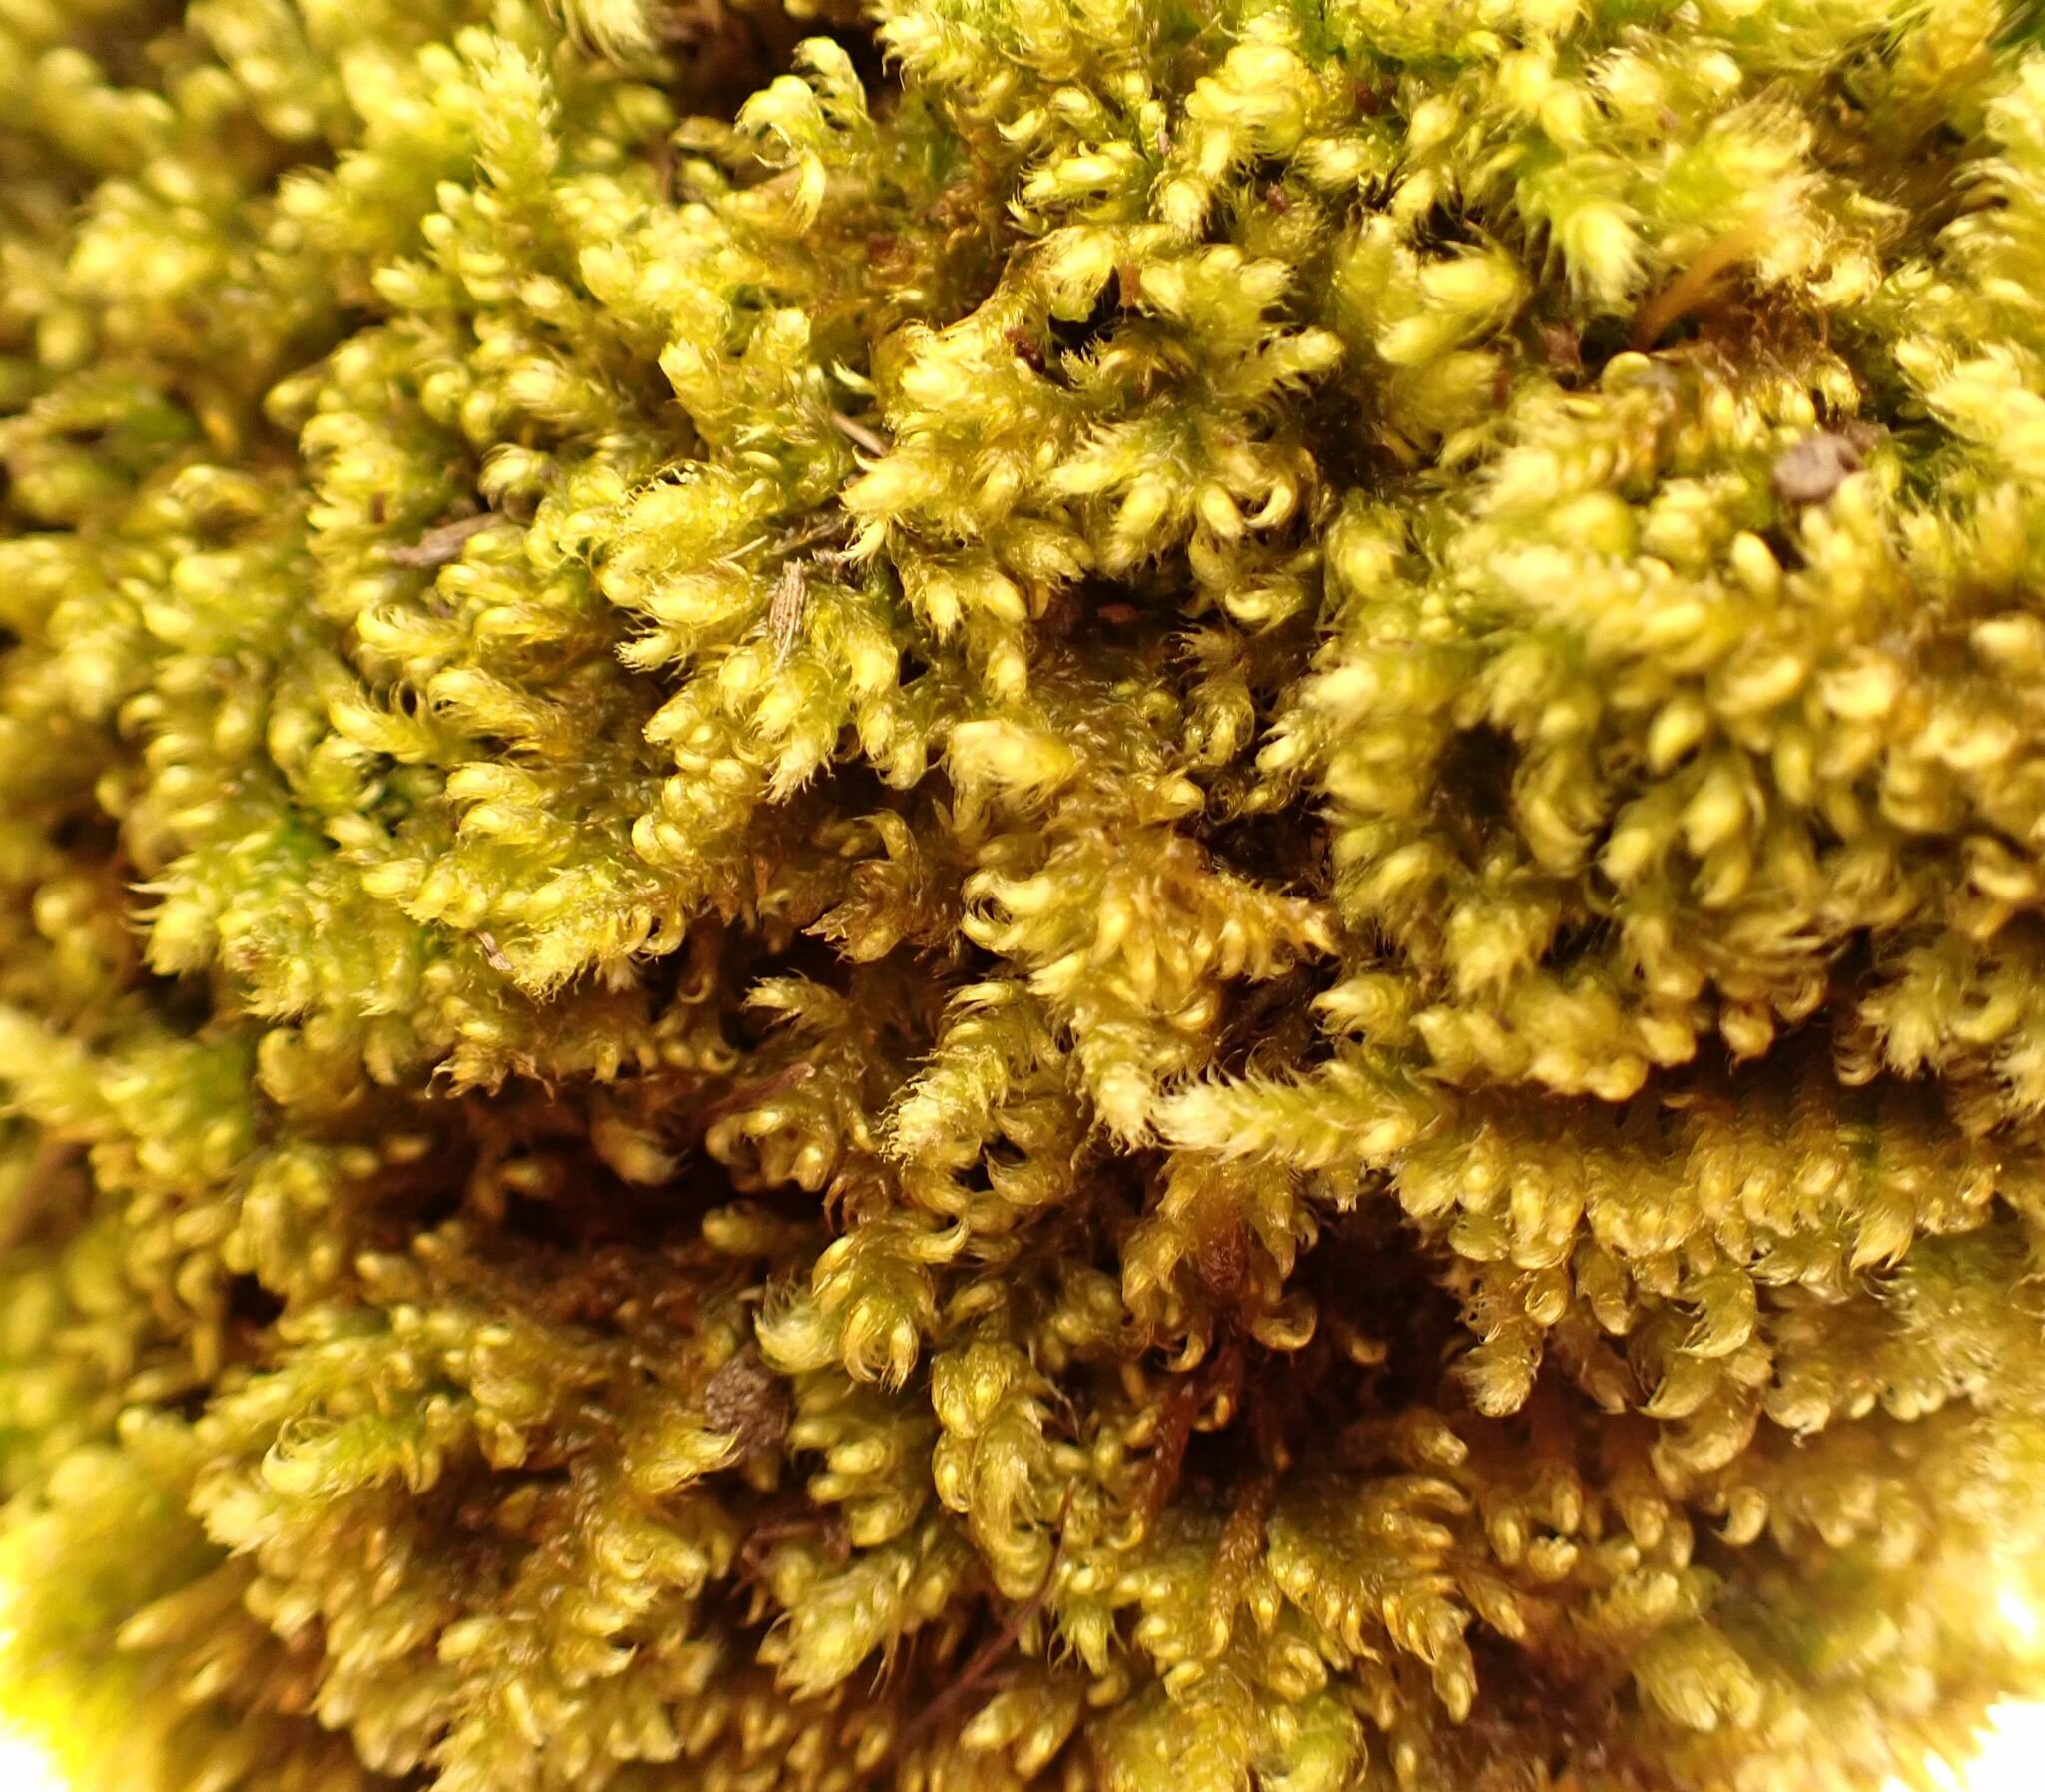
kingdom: Plantae
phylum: Bryophyta
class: Bryopsida
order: Hypnales
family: Myuriaceae
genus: Ctenidium
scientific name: Ctenidium molluscum
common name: Chalk comb-moss
